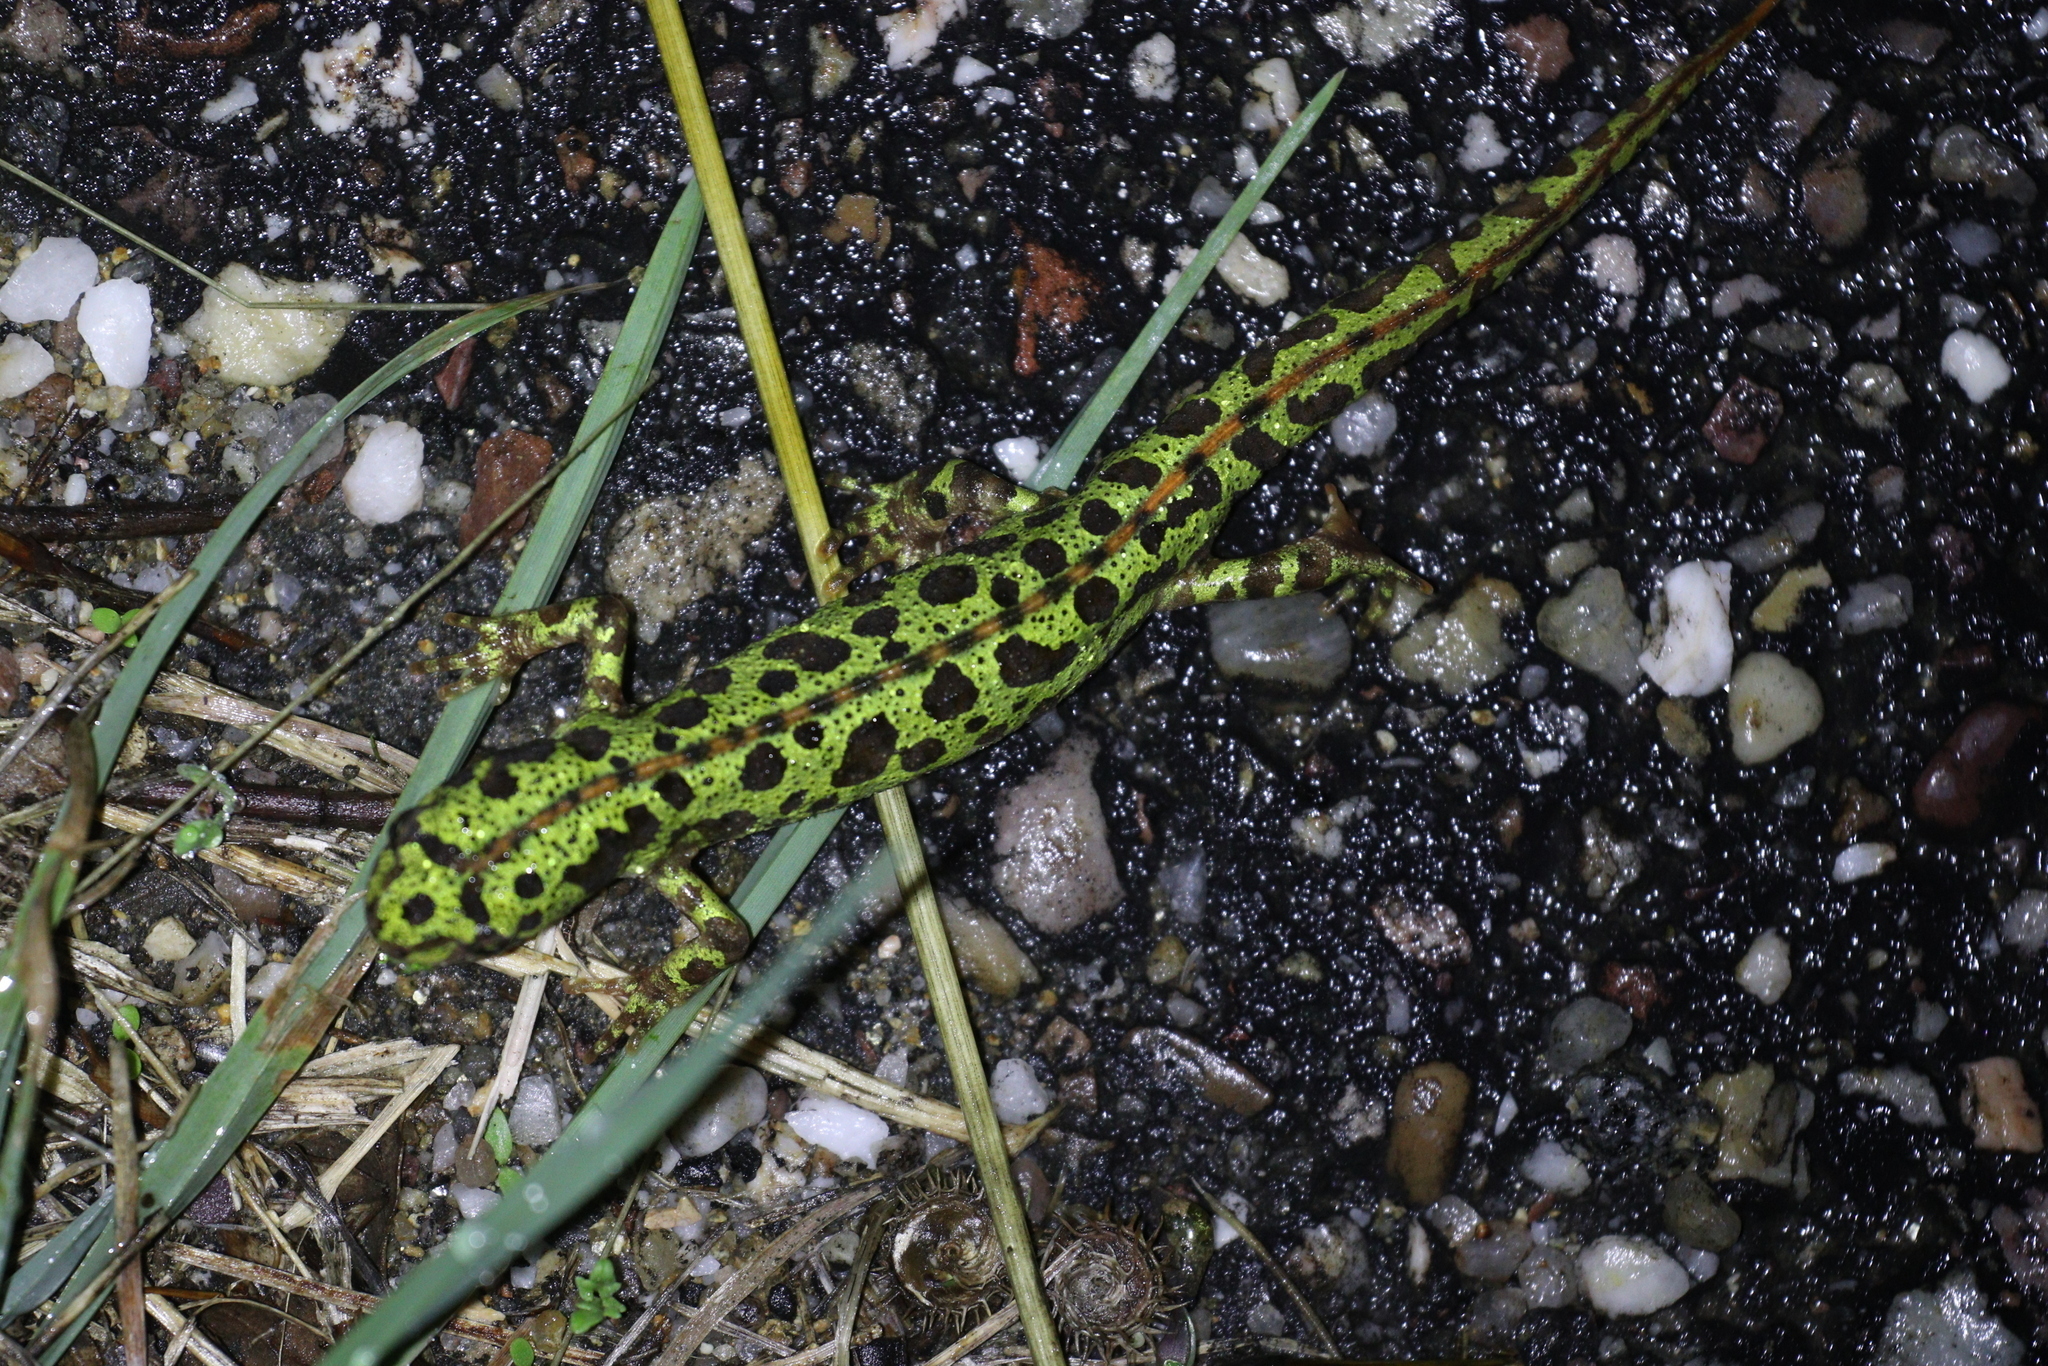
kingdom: Animalia
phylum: Chordata
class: Amphibia
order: Caudata
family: Salamandridae
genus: Triturus
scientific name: Triturus pygmaeus
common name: Southern marbled newt
